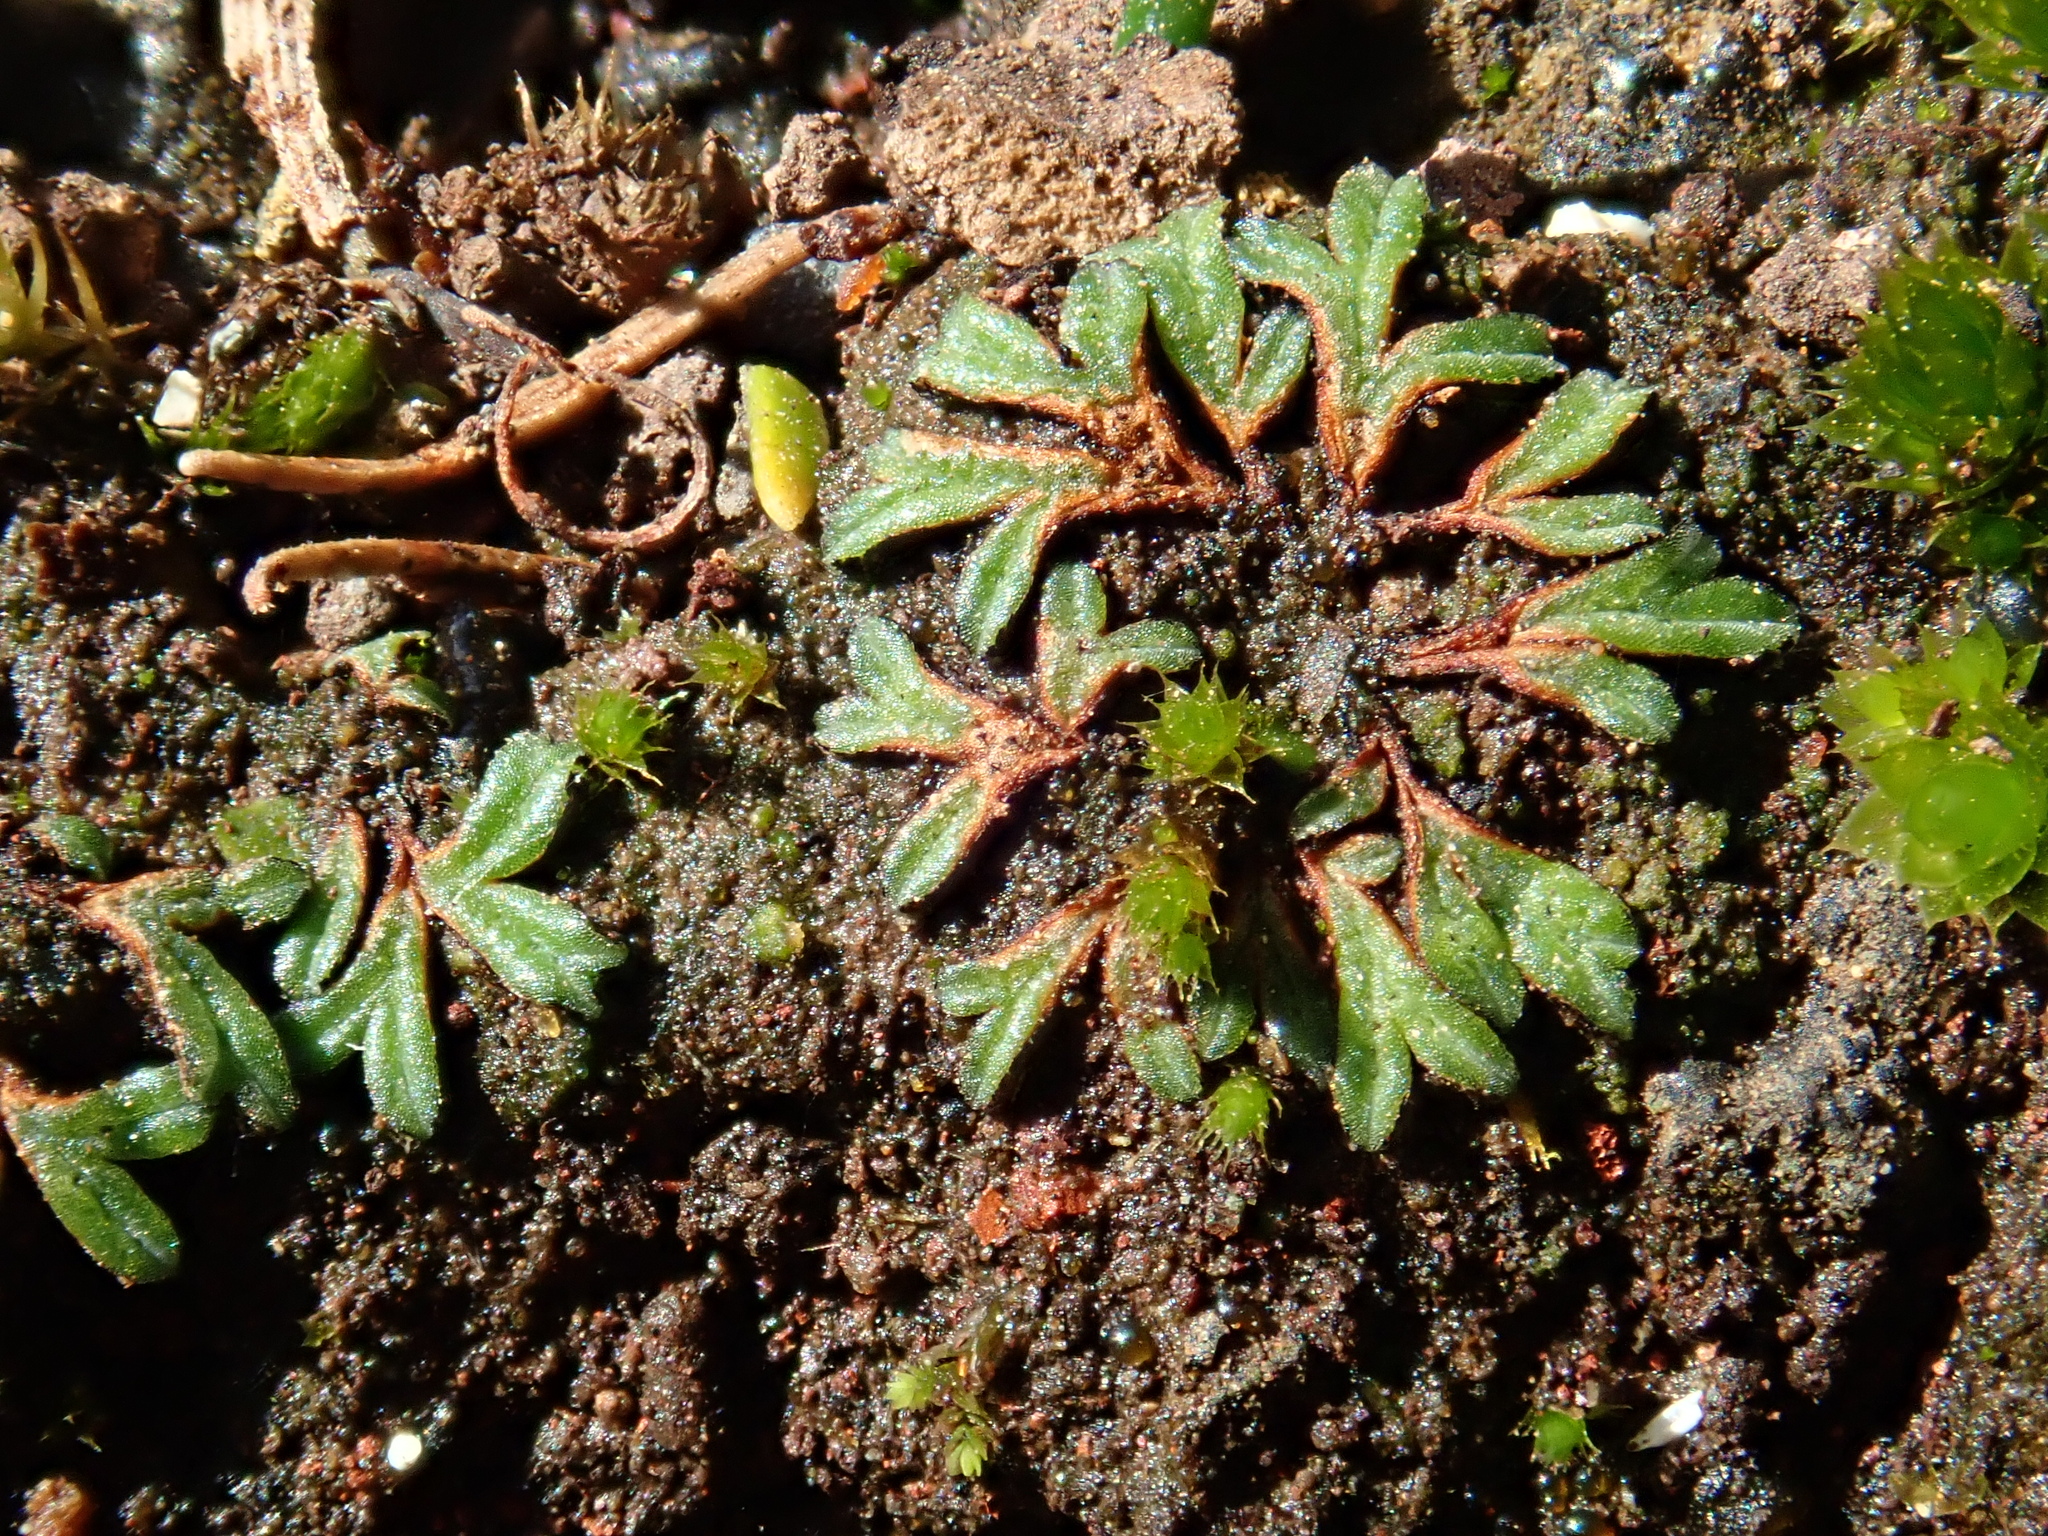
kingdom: Plantae
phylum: Marchantiophyta
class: Marchantiopsida
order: Marchantiales
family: Ricciaceae
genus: Riccia
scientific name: Riccia nigrella
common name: Black crystalwort
